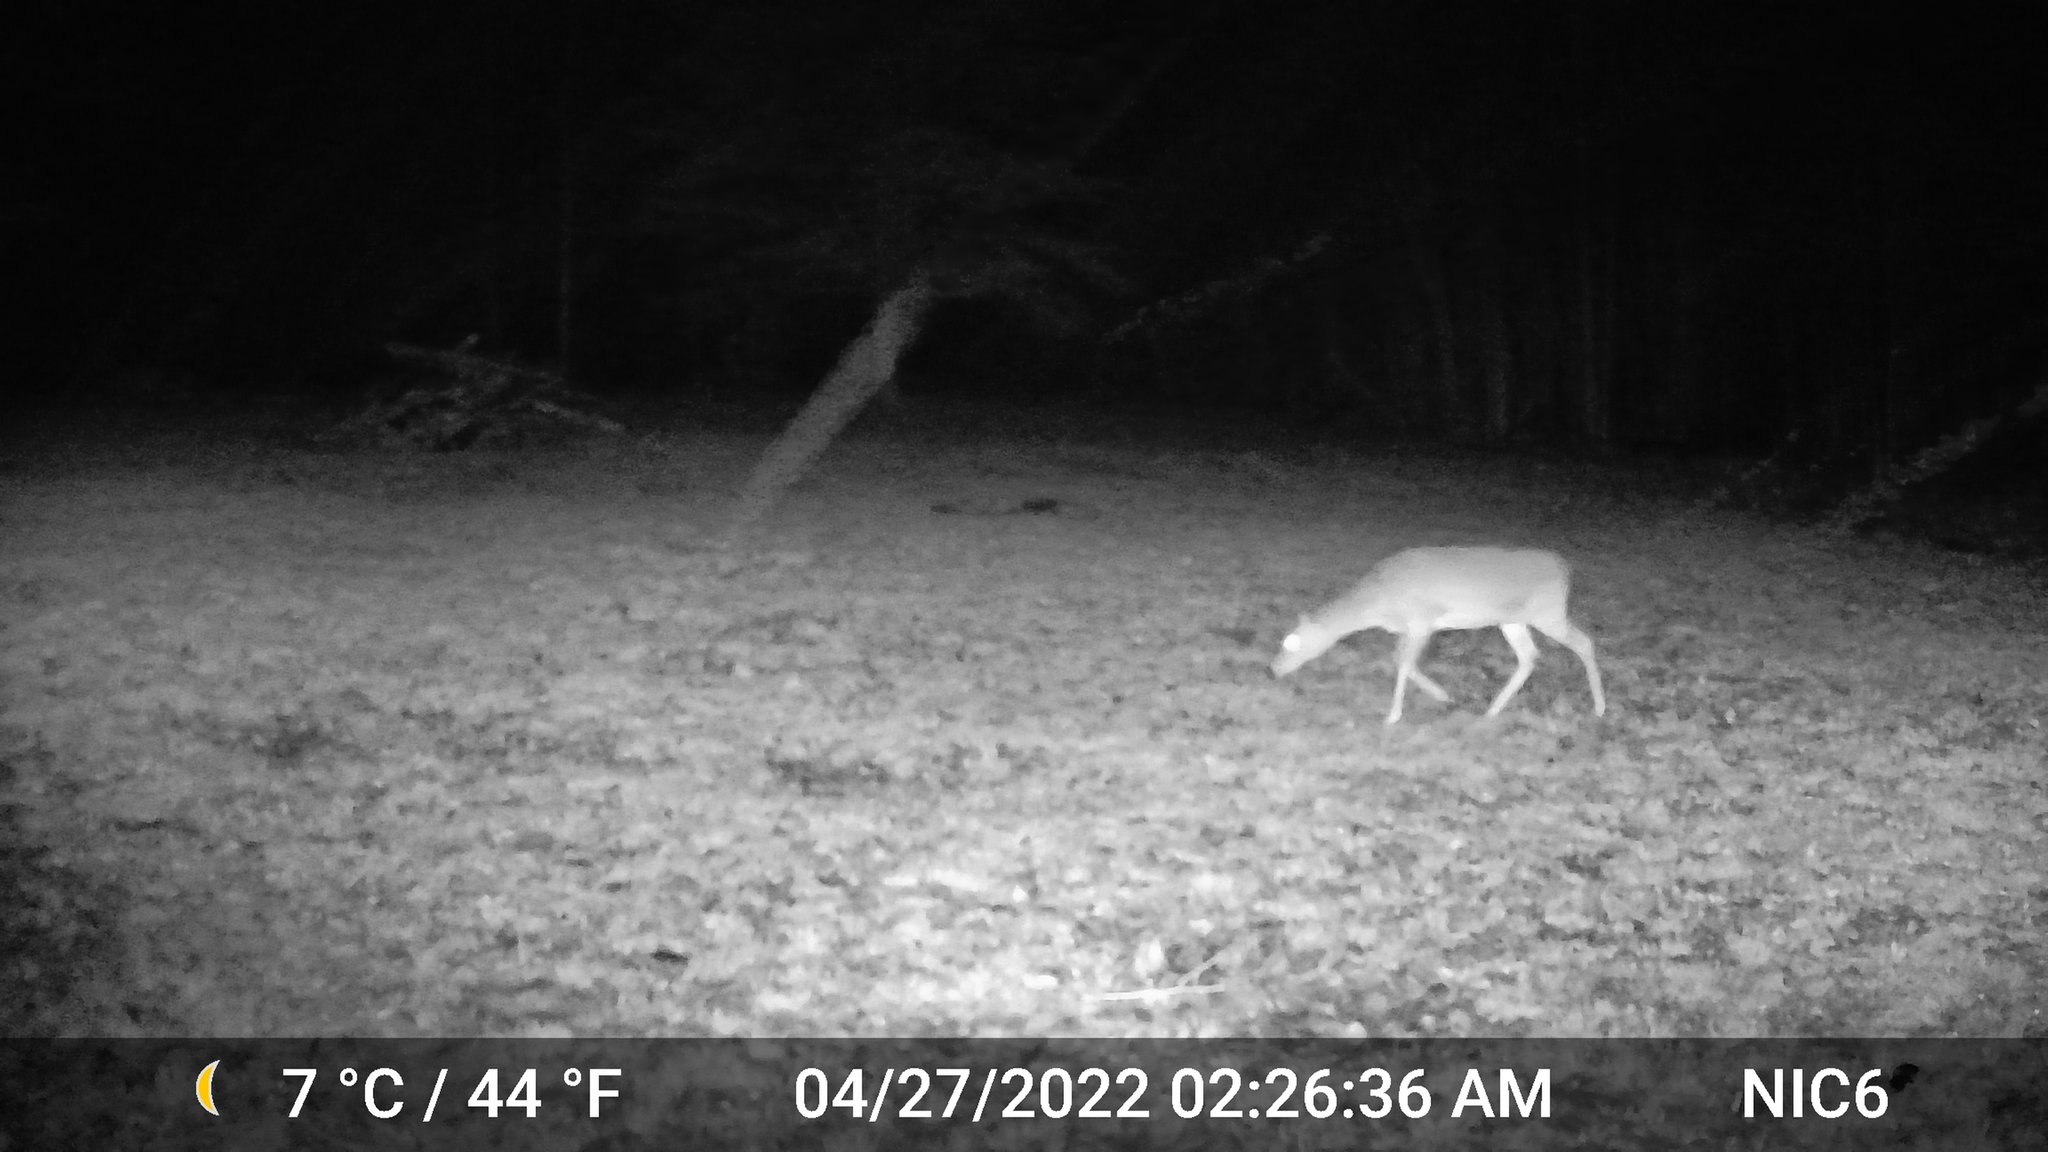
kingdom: Animalia
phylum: Chordata
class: Mammalia
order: Artiodactyla
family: Cervidae
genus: Odocoileus
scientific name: Odocoileus virginianus
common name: White-tailed deer
